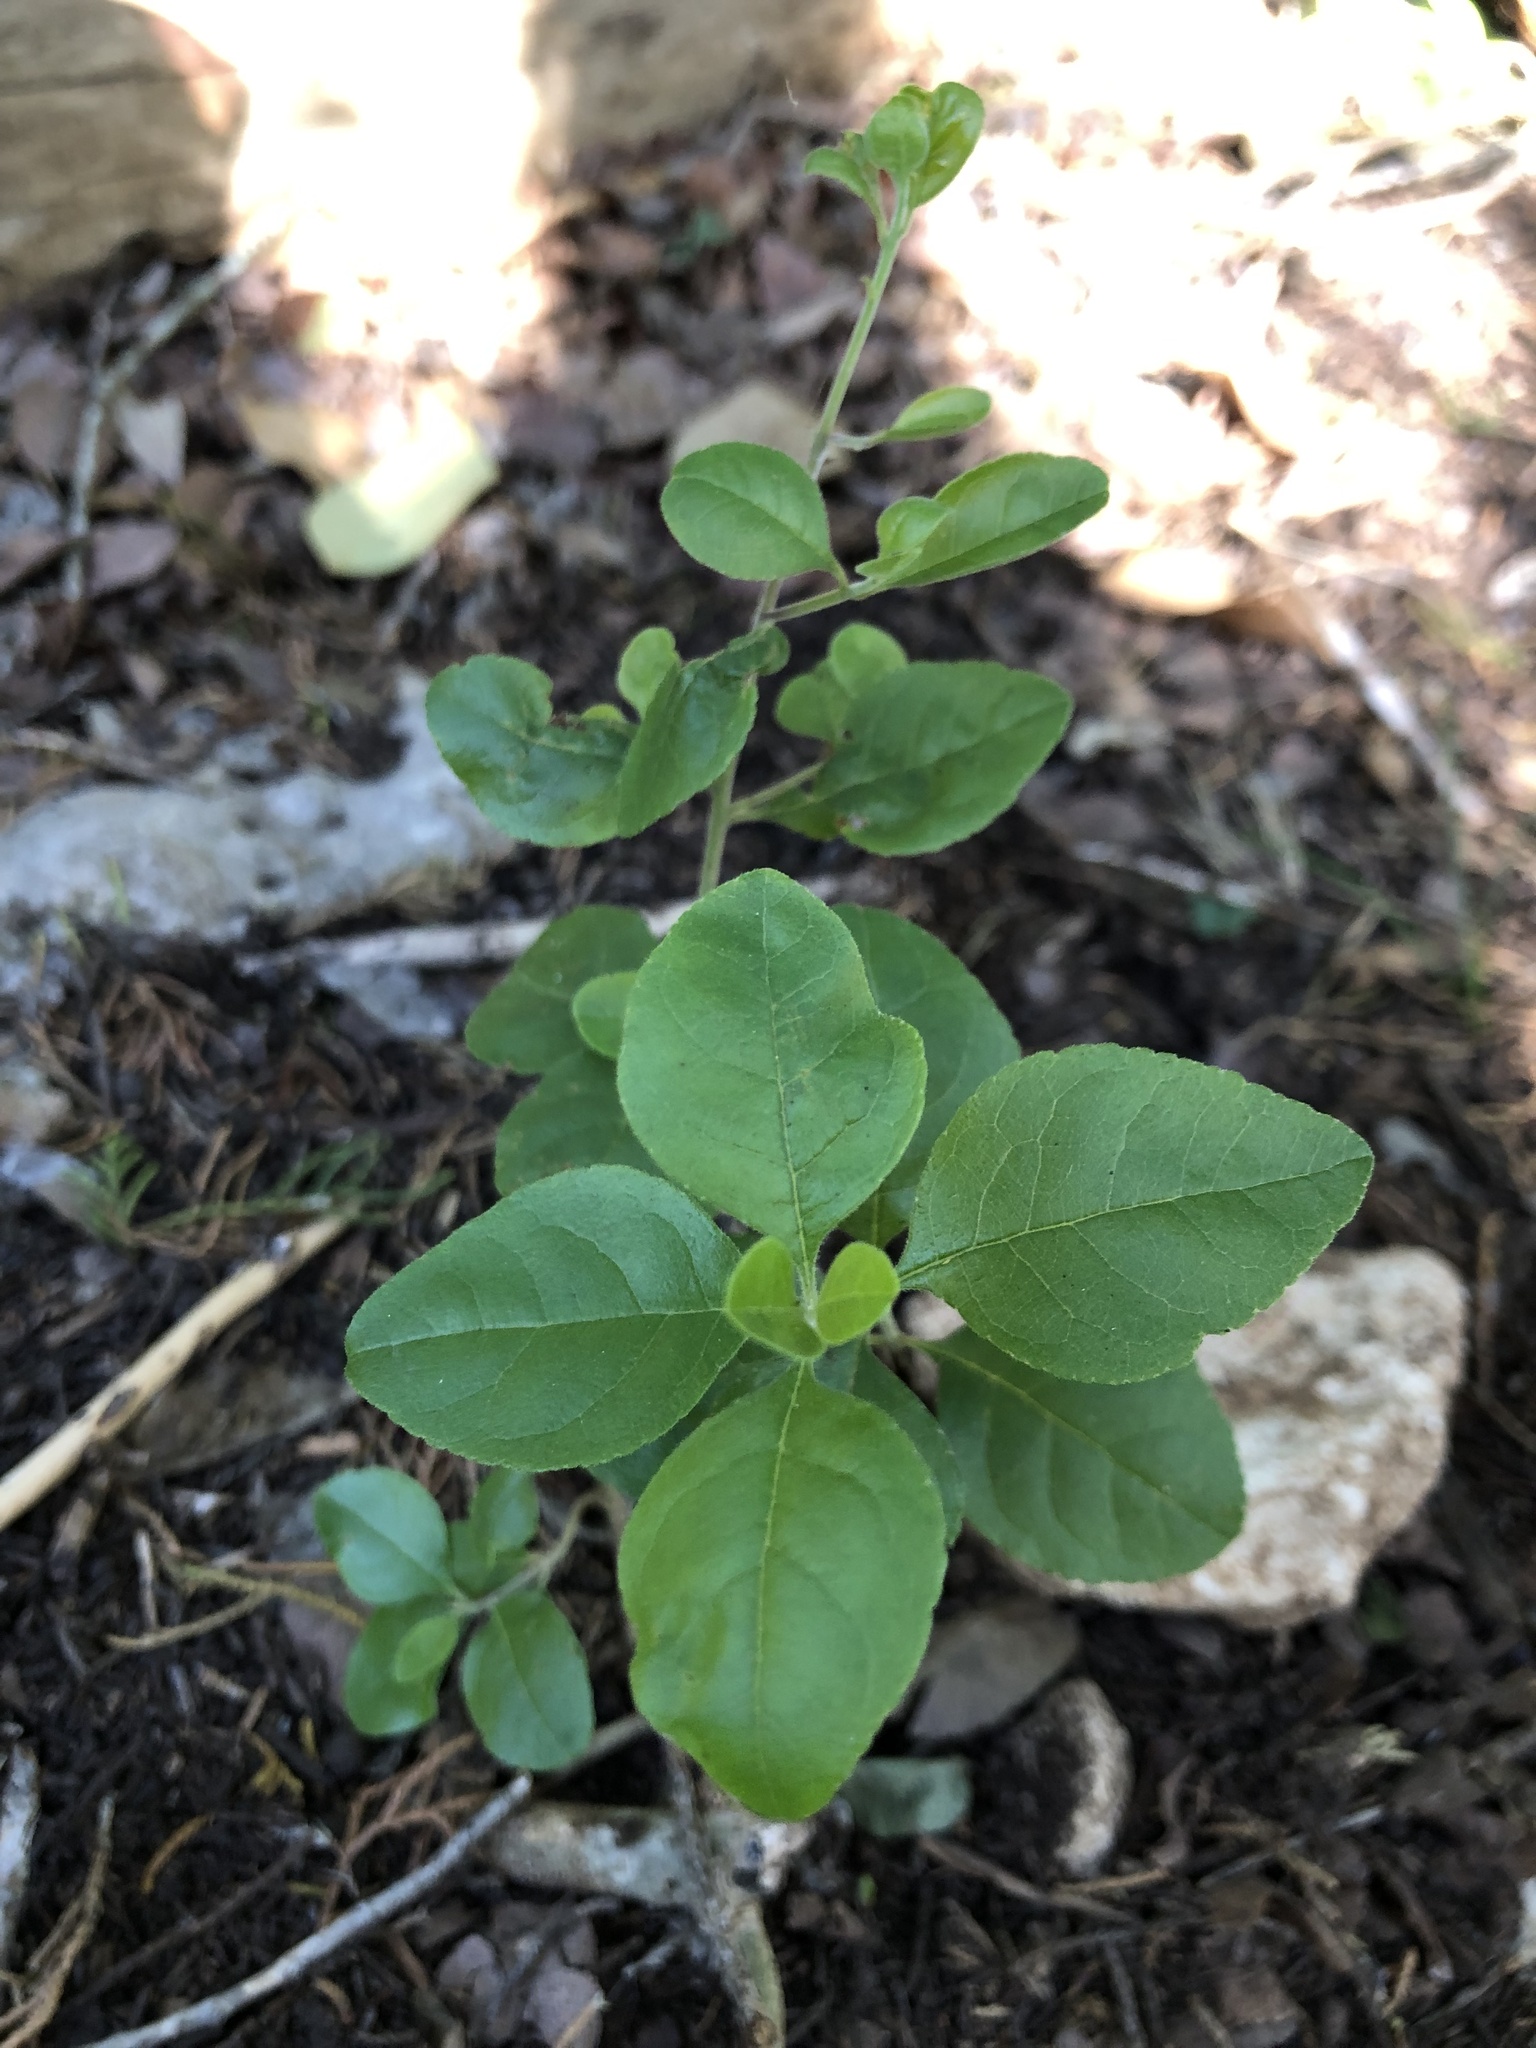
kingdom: Plantae
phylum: Tracheophyta
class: Magnoliopsida
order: Lamiales
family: Oleaceae
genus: Forestiera
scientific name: Forestiera pubescens
